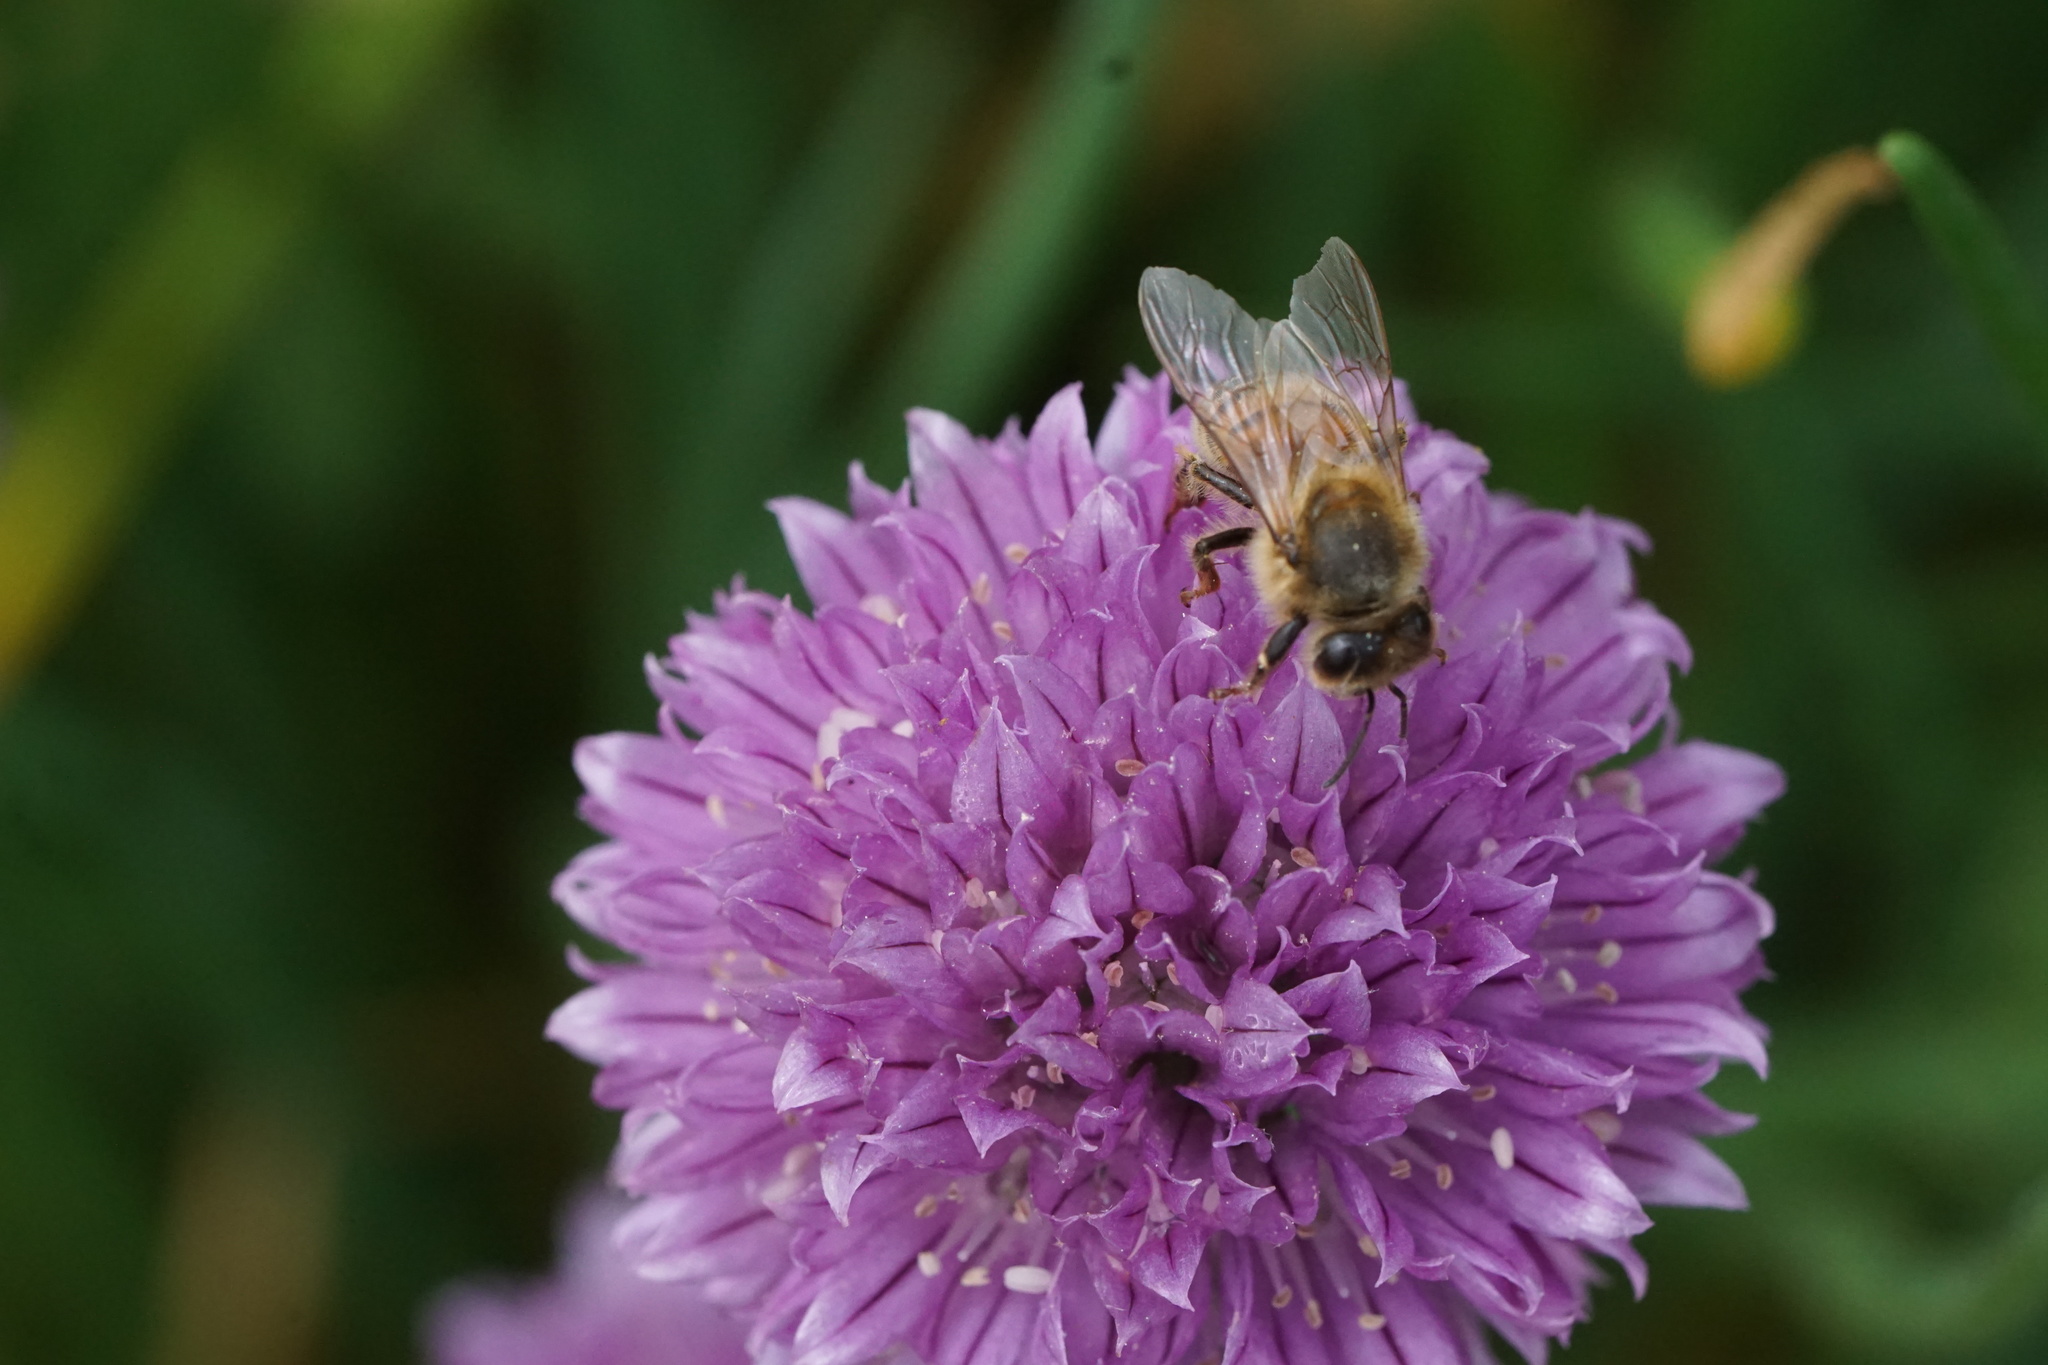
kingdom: Animalia
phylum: Arthropoda
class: Insecta
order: Hymenoptera
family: Apidae
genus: Apis
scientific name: Apis mellifera
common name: Honey bee
